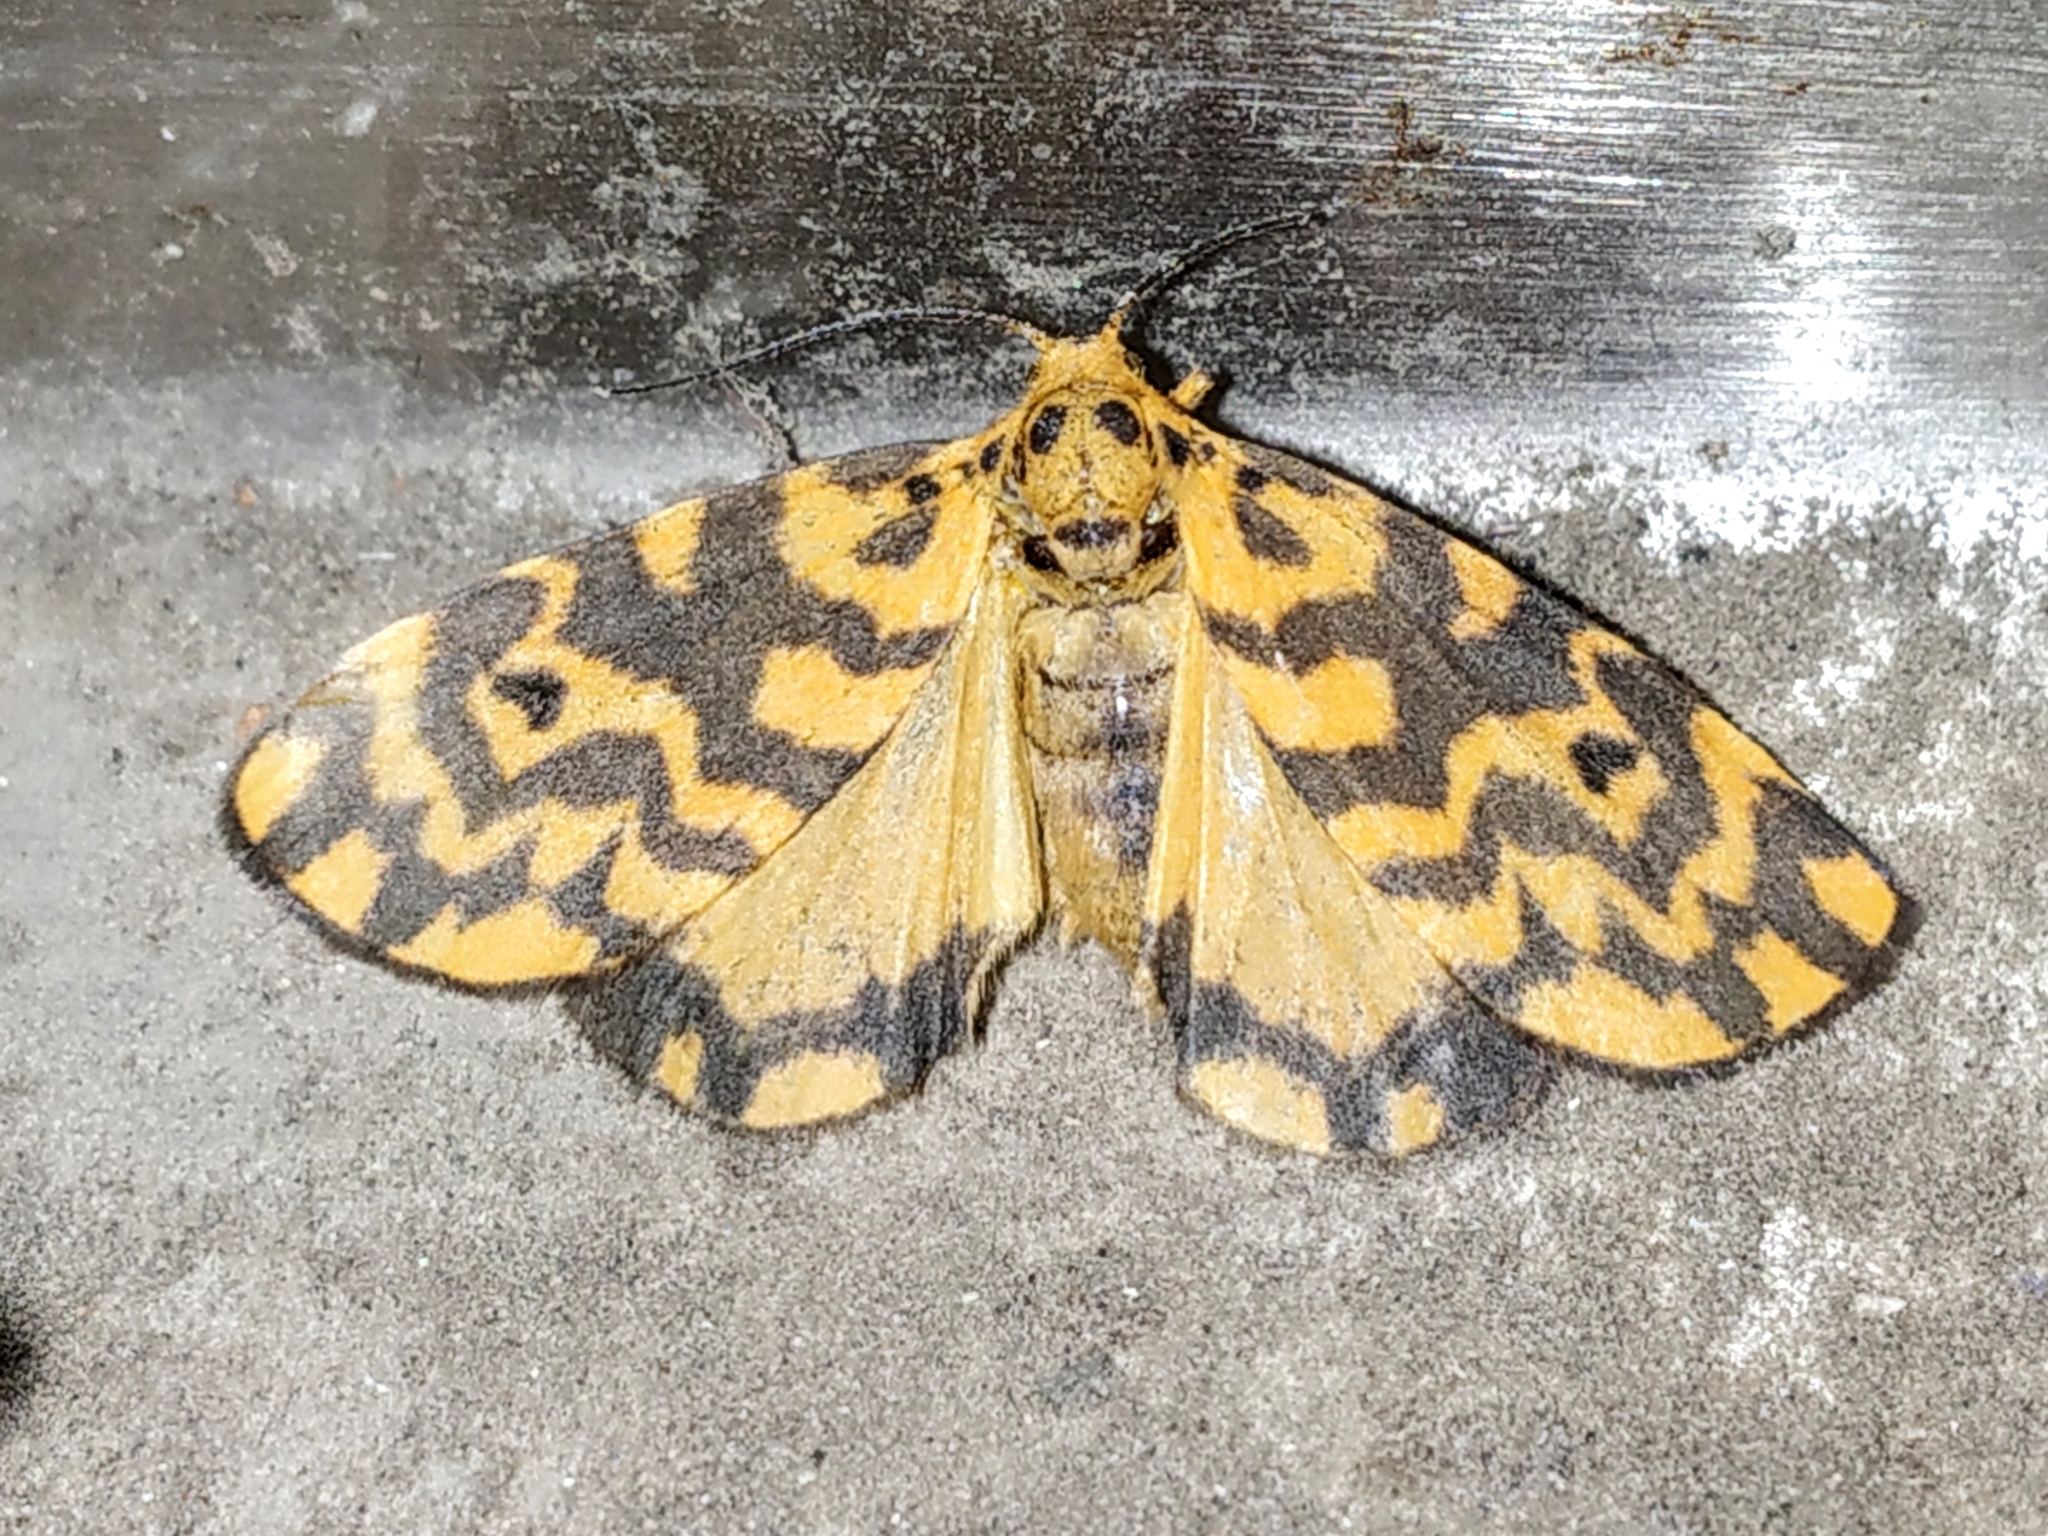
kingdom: Animalia
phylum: Arthropoda
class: Insecta
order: Lepidoptera
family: Erebidae
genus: Nepita
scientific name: Nepita conferta
